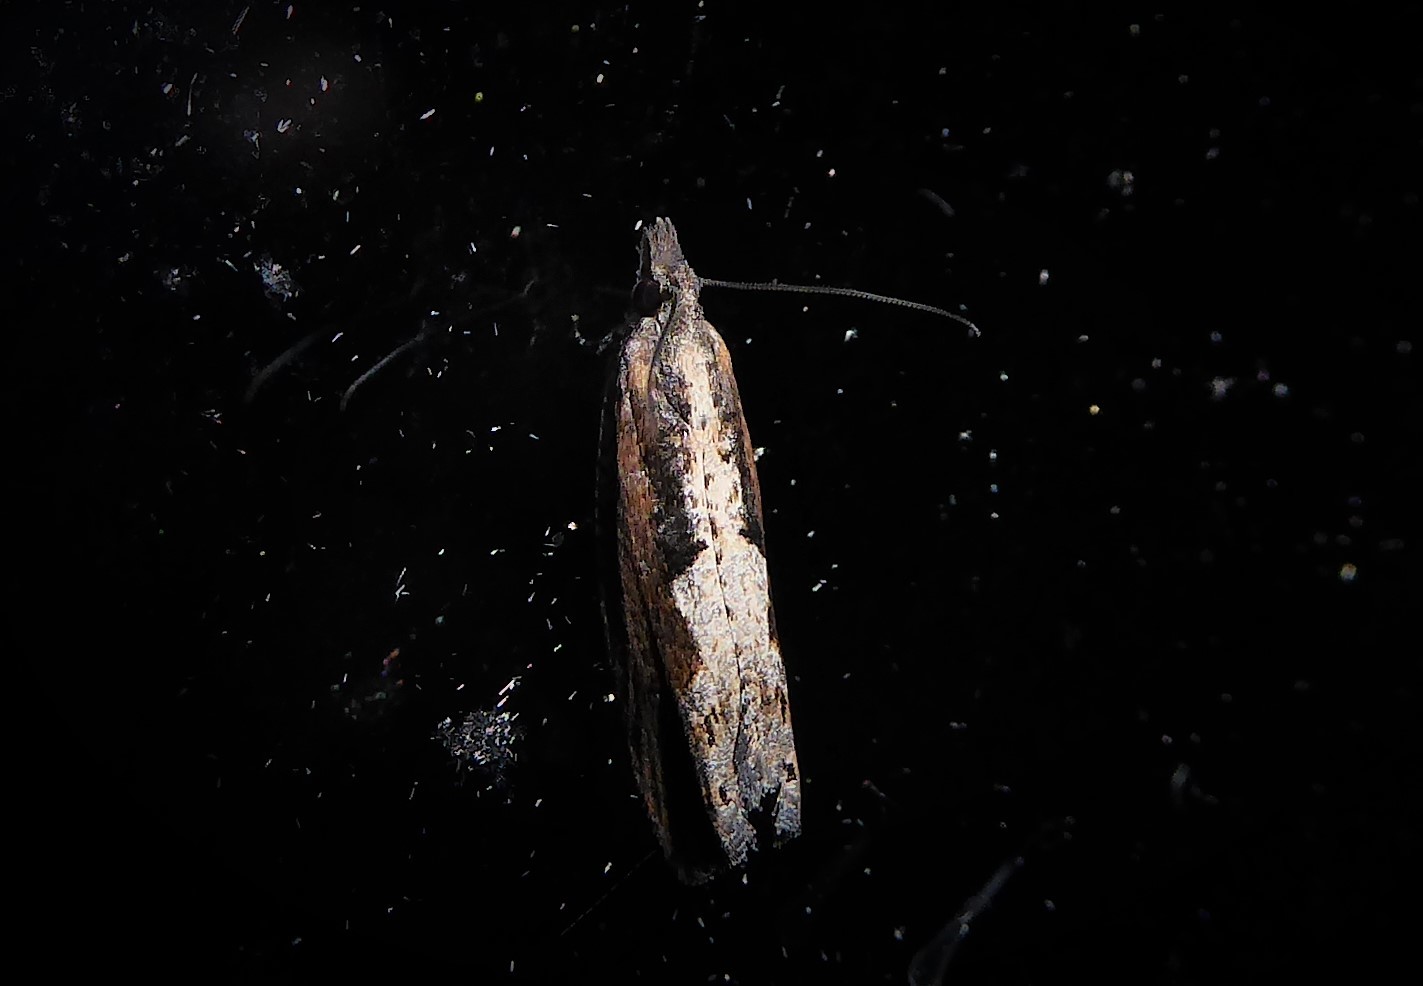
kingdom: Animalia
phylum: Arthropoda
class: Insecta
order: Lepidoptera
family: Tortricidae
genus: Strepsicrates
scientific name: Strepsicrates macropetana
